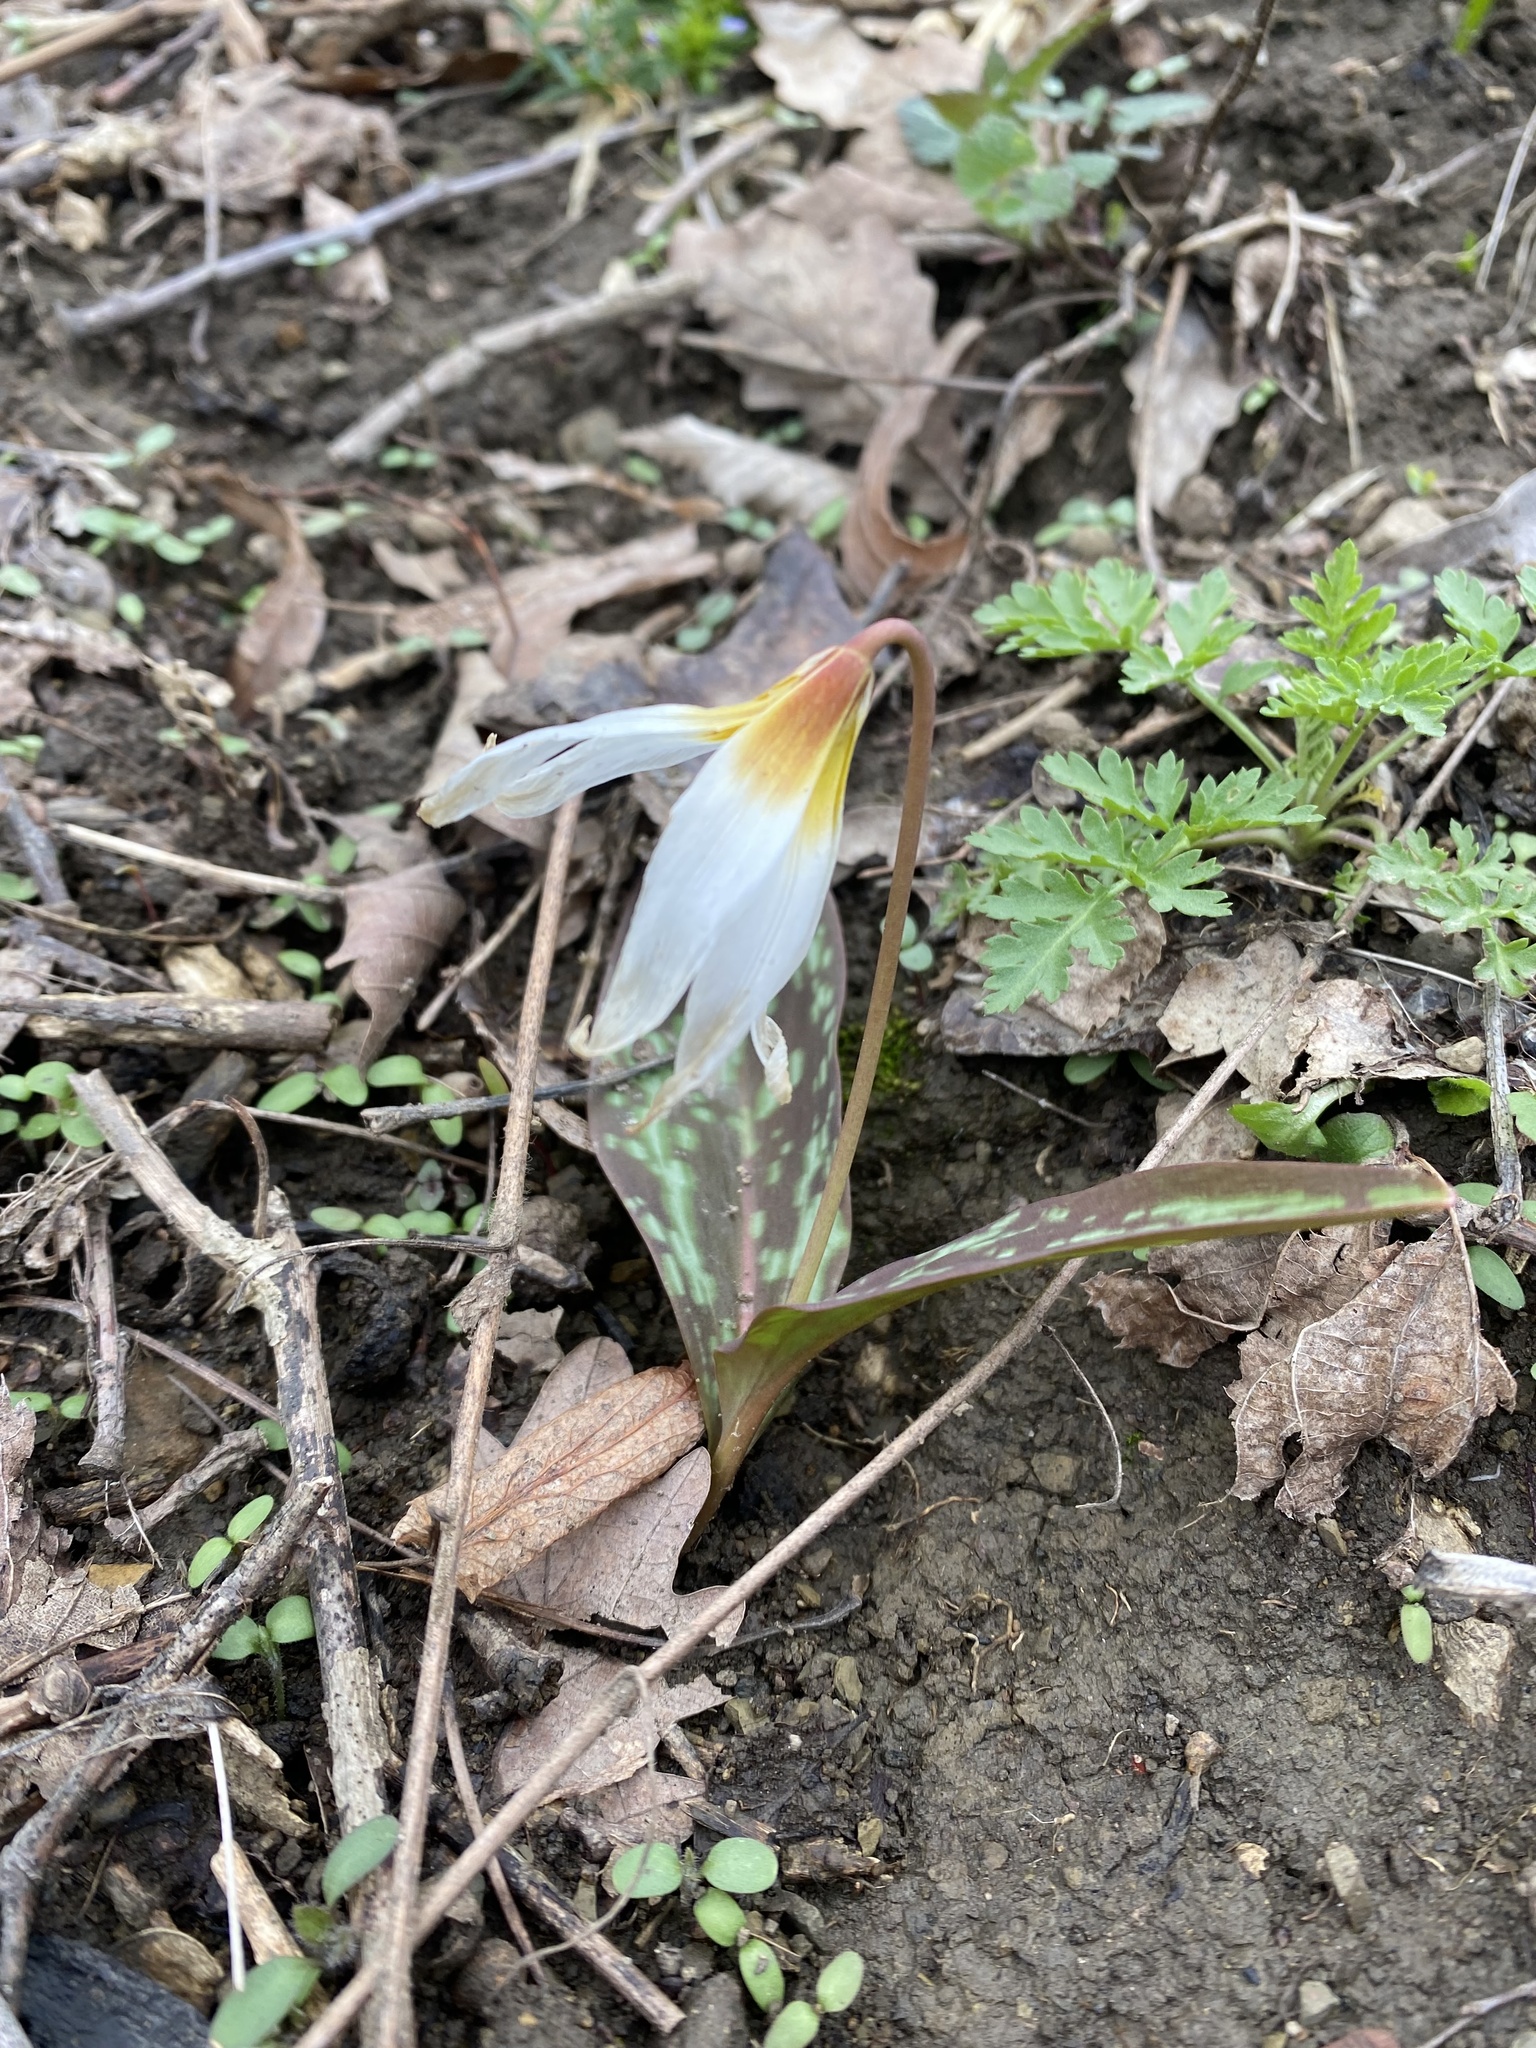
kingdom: Plantae
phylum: Tracheophyta
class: Liliopsida
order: Liliales
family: Liliaceae
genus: Erythronium
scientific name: Erythronium caucasicum
